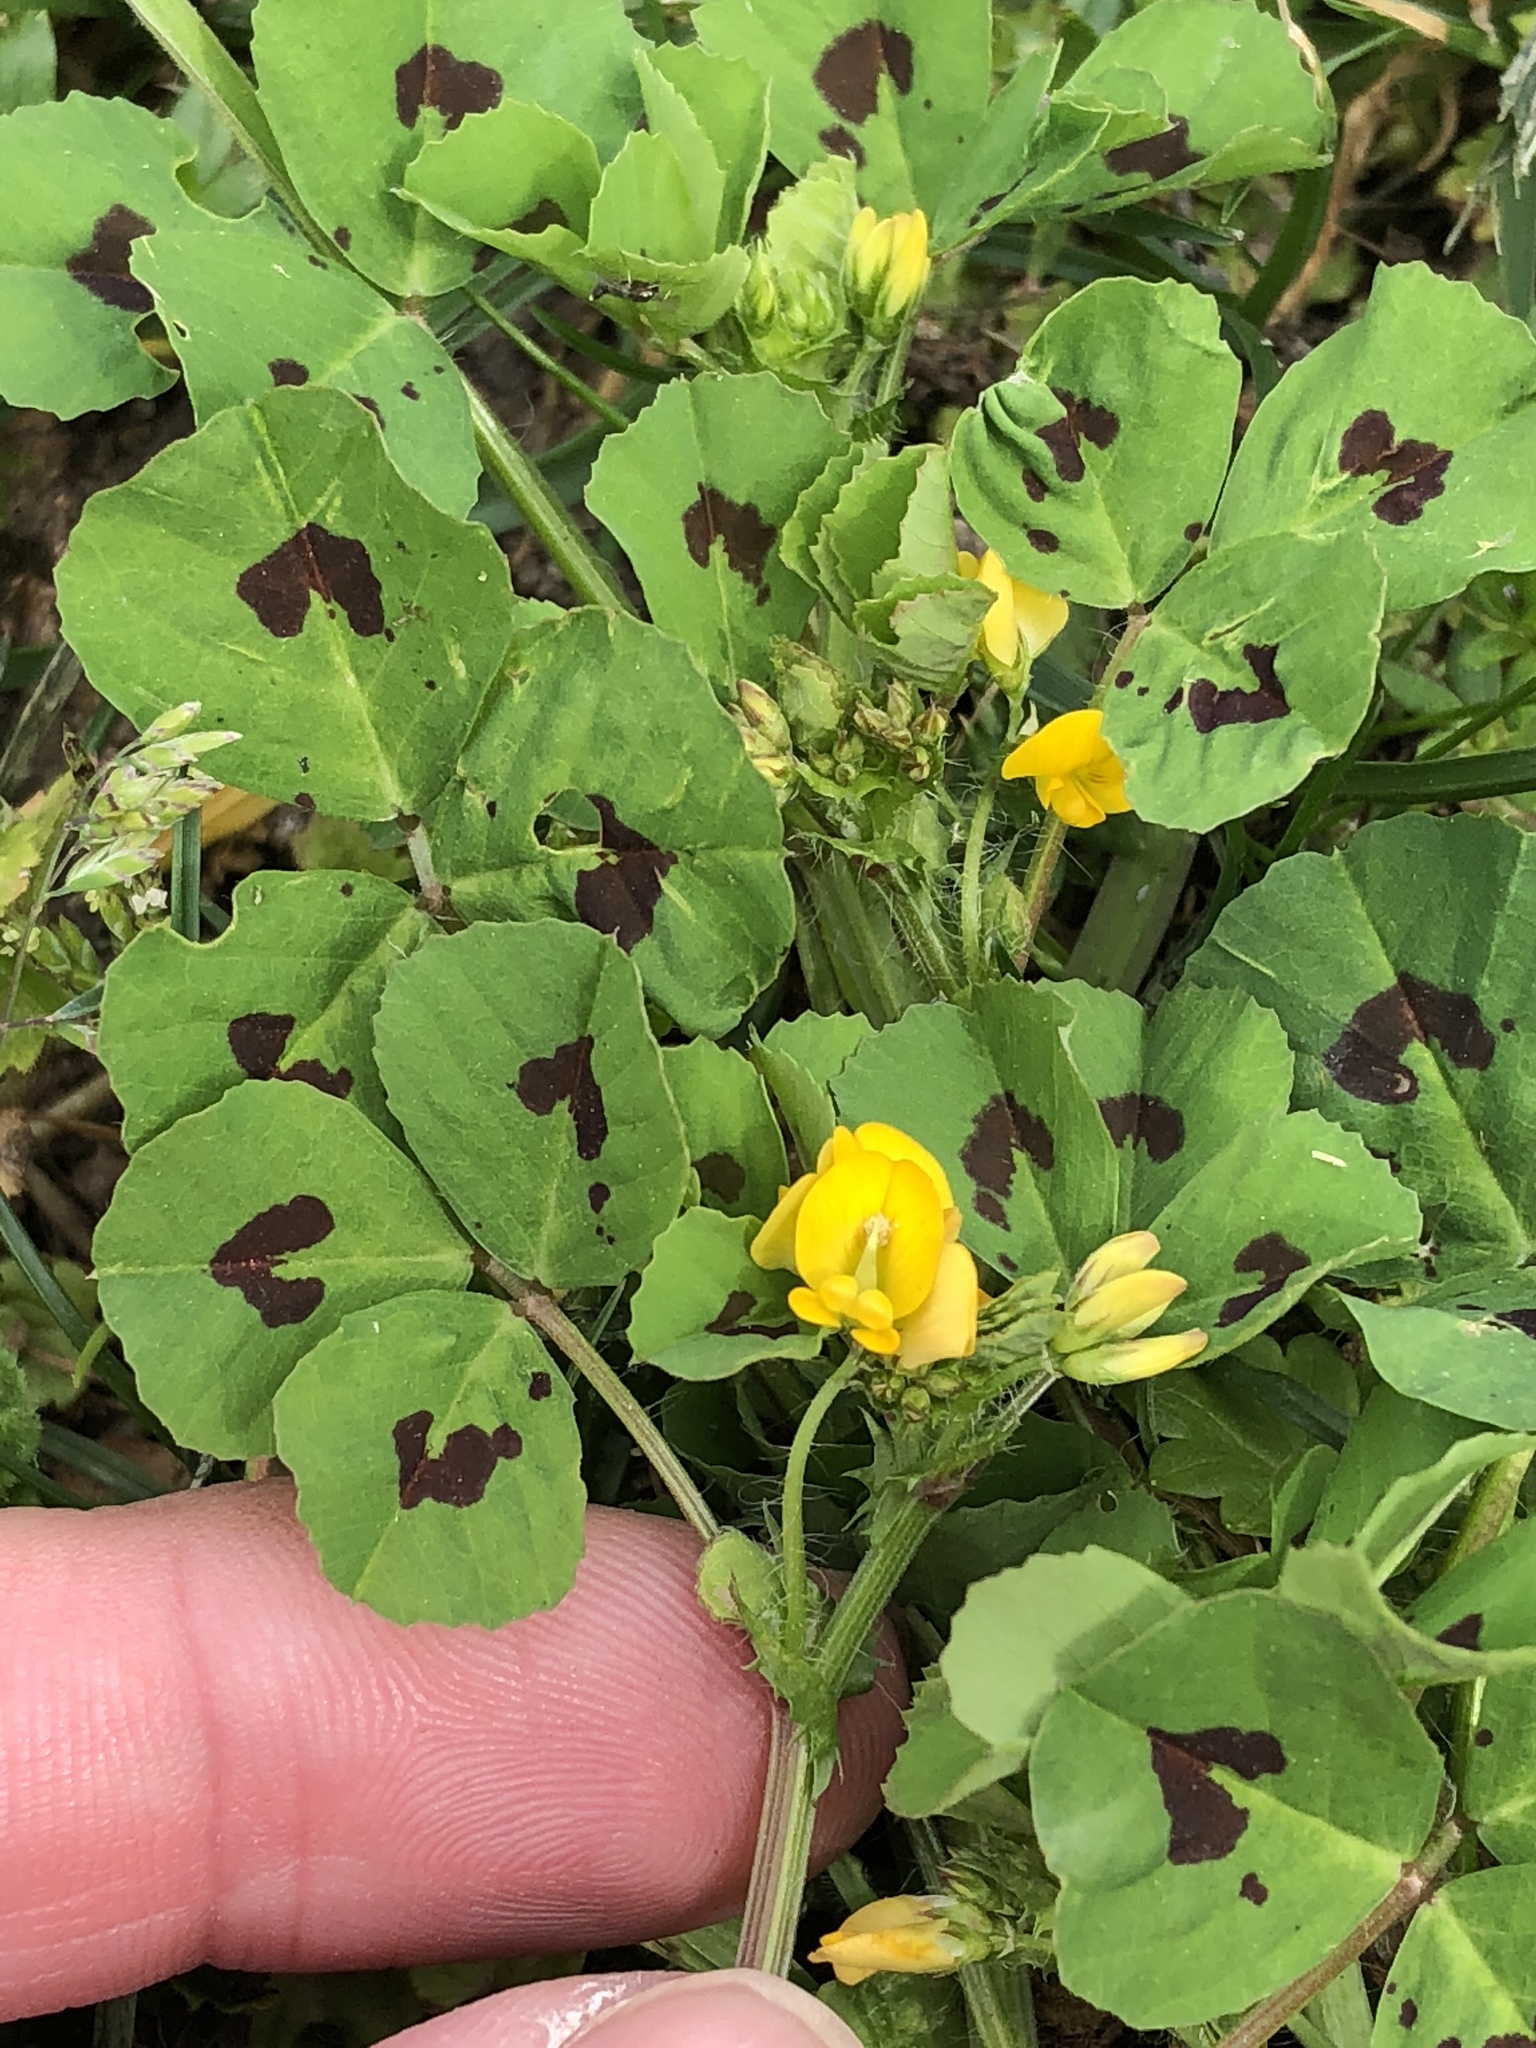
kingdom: Plantae
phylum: Tracheophyta
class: Magnoliopsida
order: Fabales
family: Fabaceae
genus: Medicago
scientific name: Medicago arabica
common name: Spotted medick
